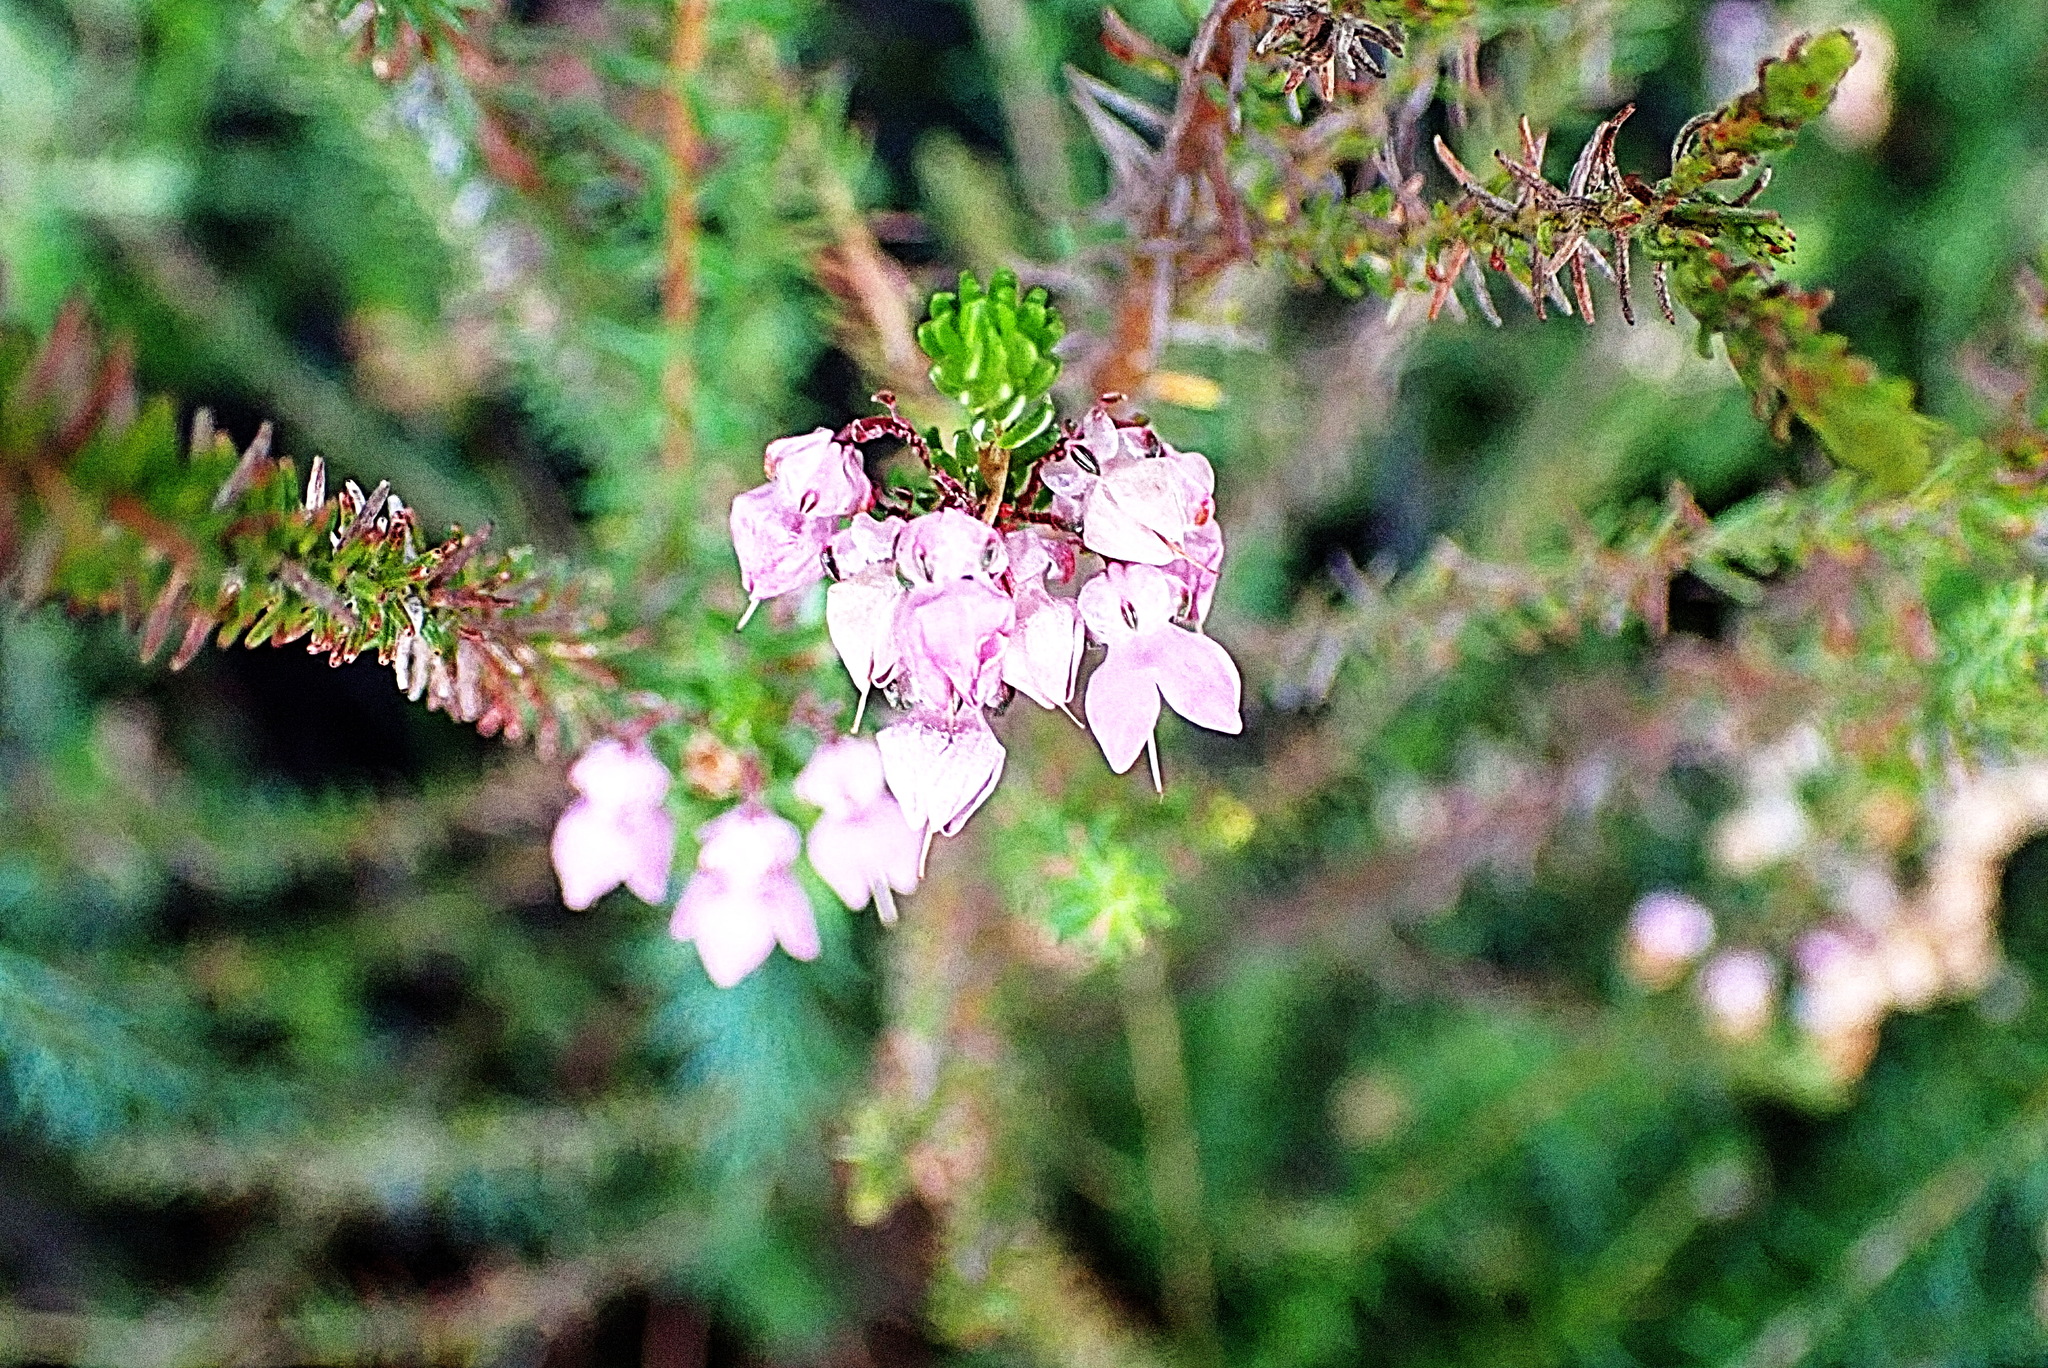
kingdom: Plantae
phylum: Tracheophyta
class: Magnoliopsida
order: Ericales
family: Ericaceae
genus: Erica
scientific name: Erica cubica
